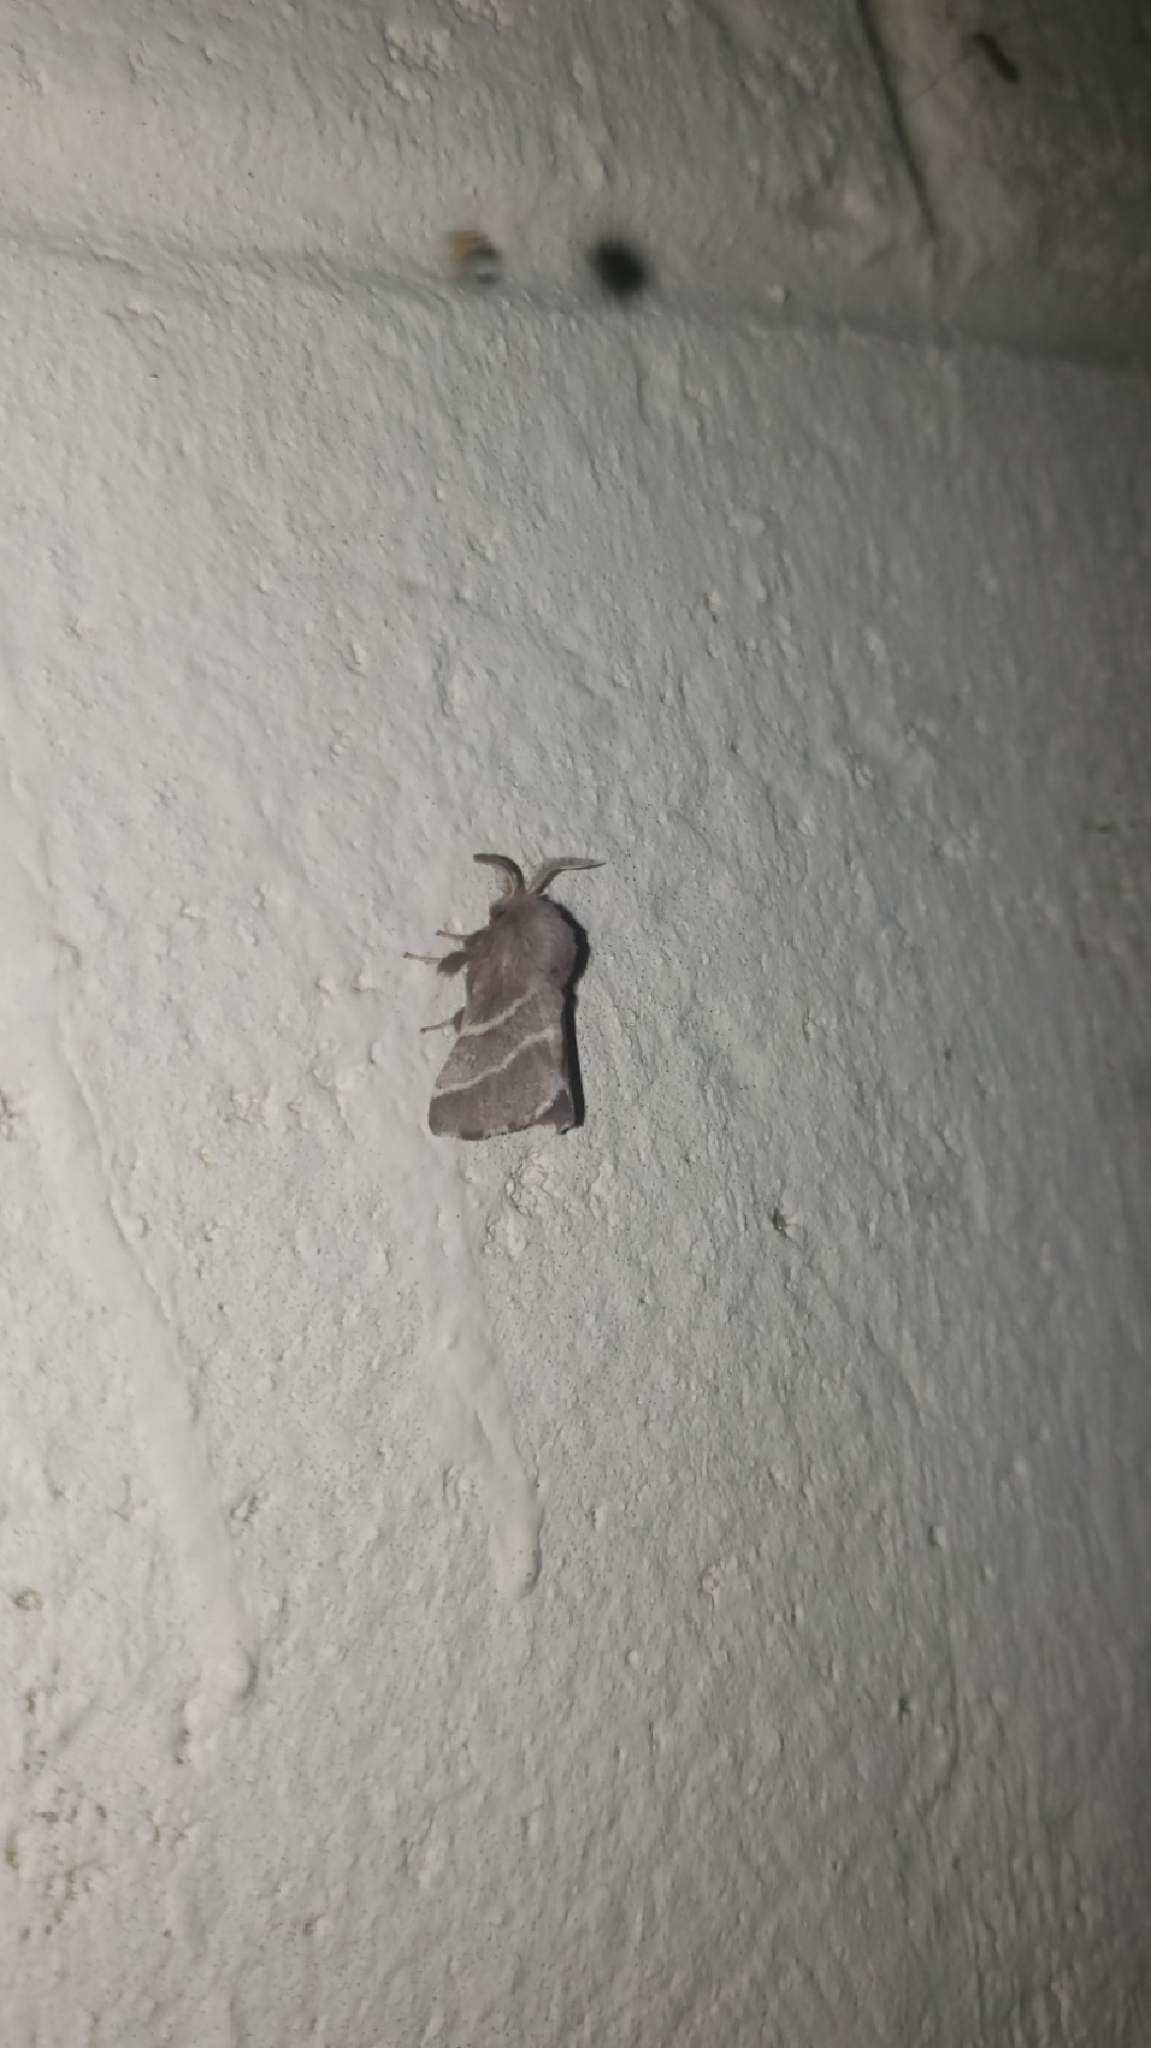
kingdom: Animalia
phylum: Arthropoda
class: Insecta
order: Lepidoptera
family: Lasiocampidae
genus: Malacosoma
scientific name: Malacosoma americana
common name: Eastern tent caterpillar moth
